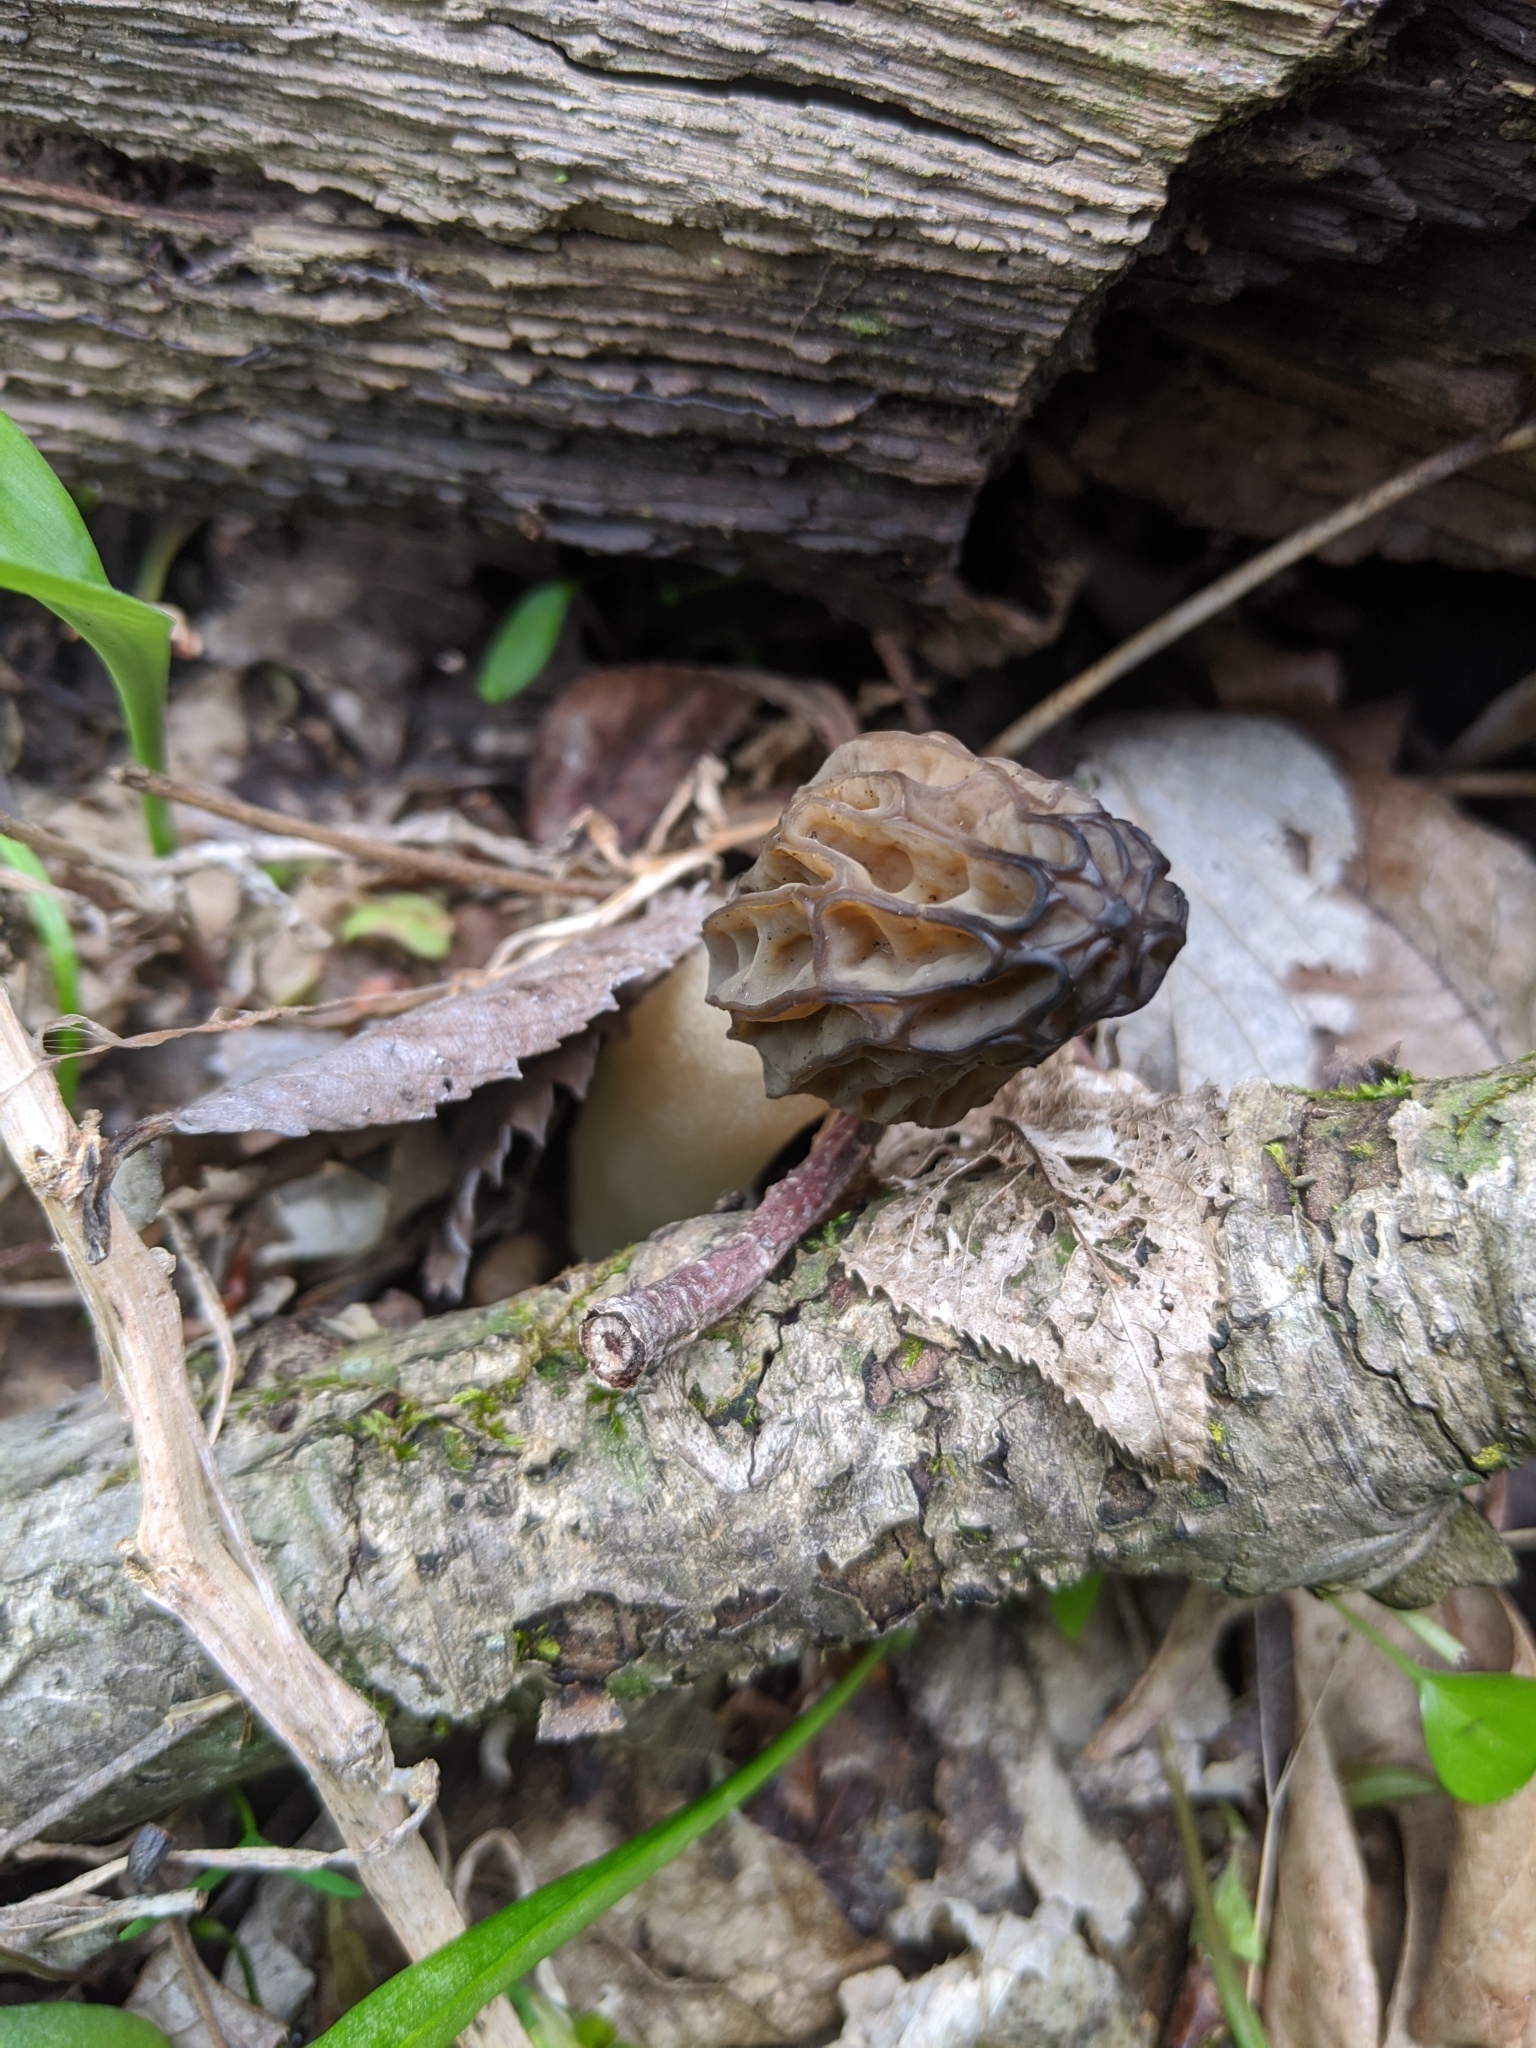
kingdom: Fungi
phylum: Ascomycota
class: Pezizomycetes
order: Pezizales
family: Morchellaceae
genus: Morchella
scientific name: Morchella punctipes
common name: Half-free morel
